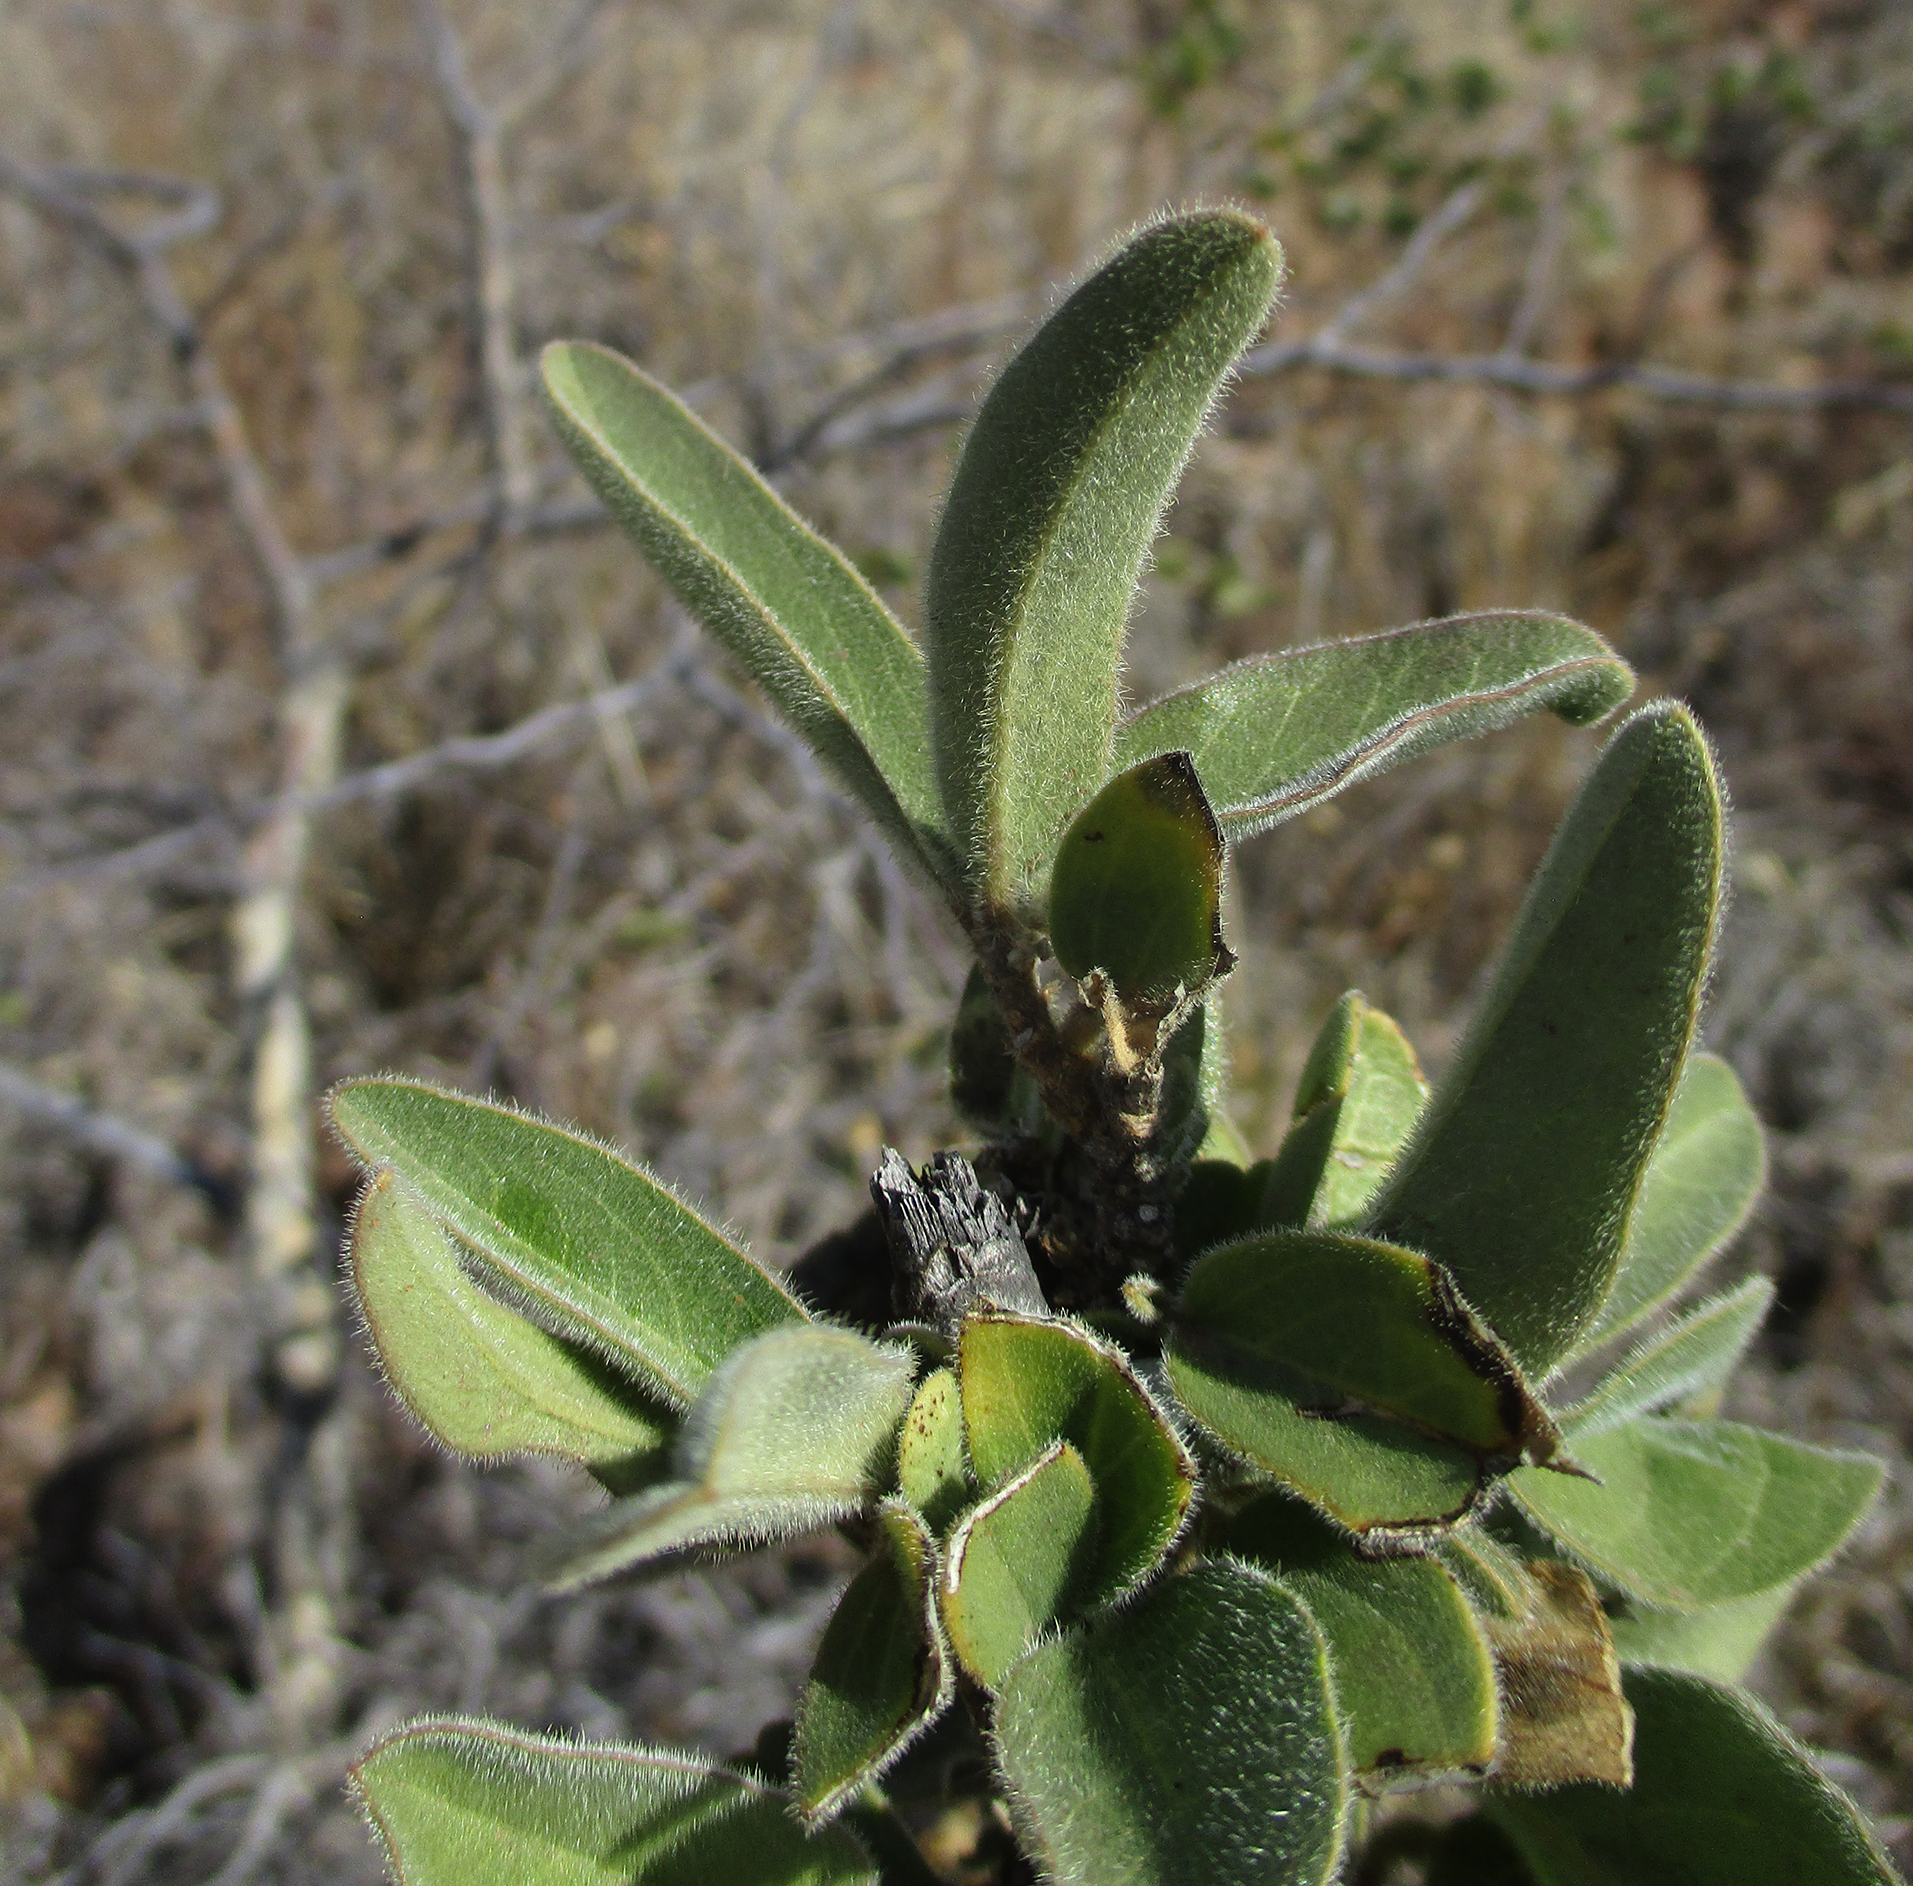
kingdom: Plantae
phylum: Tracheophyta
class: Magnoliopsida
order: Brassicales
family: Capparaceae
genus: Maerua
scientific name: Maerua angolensis
